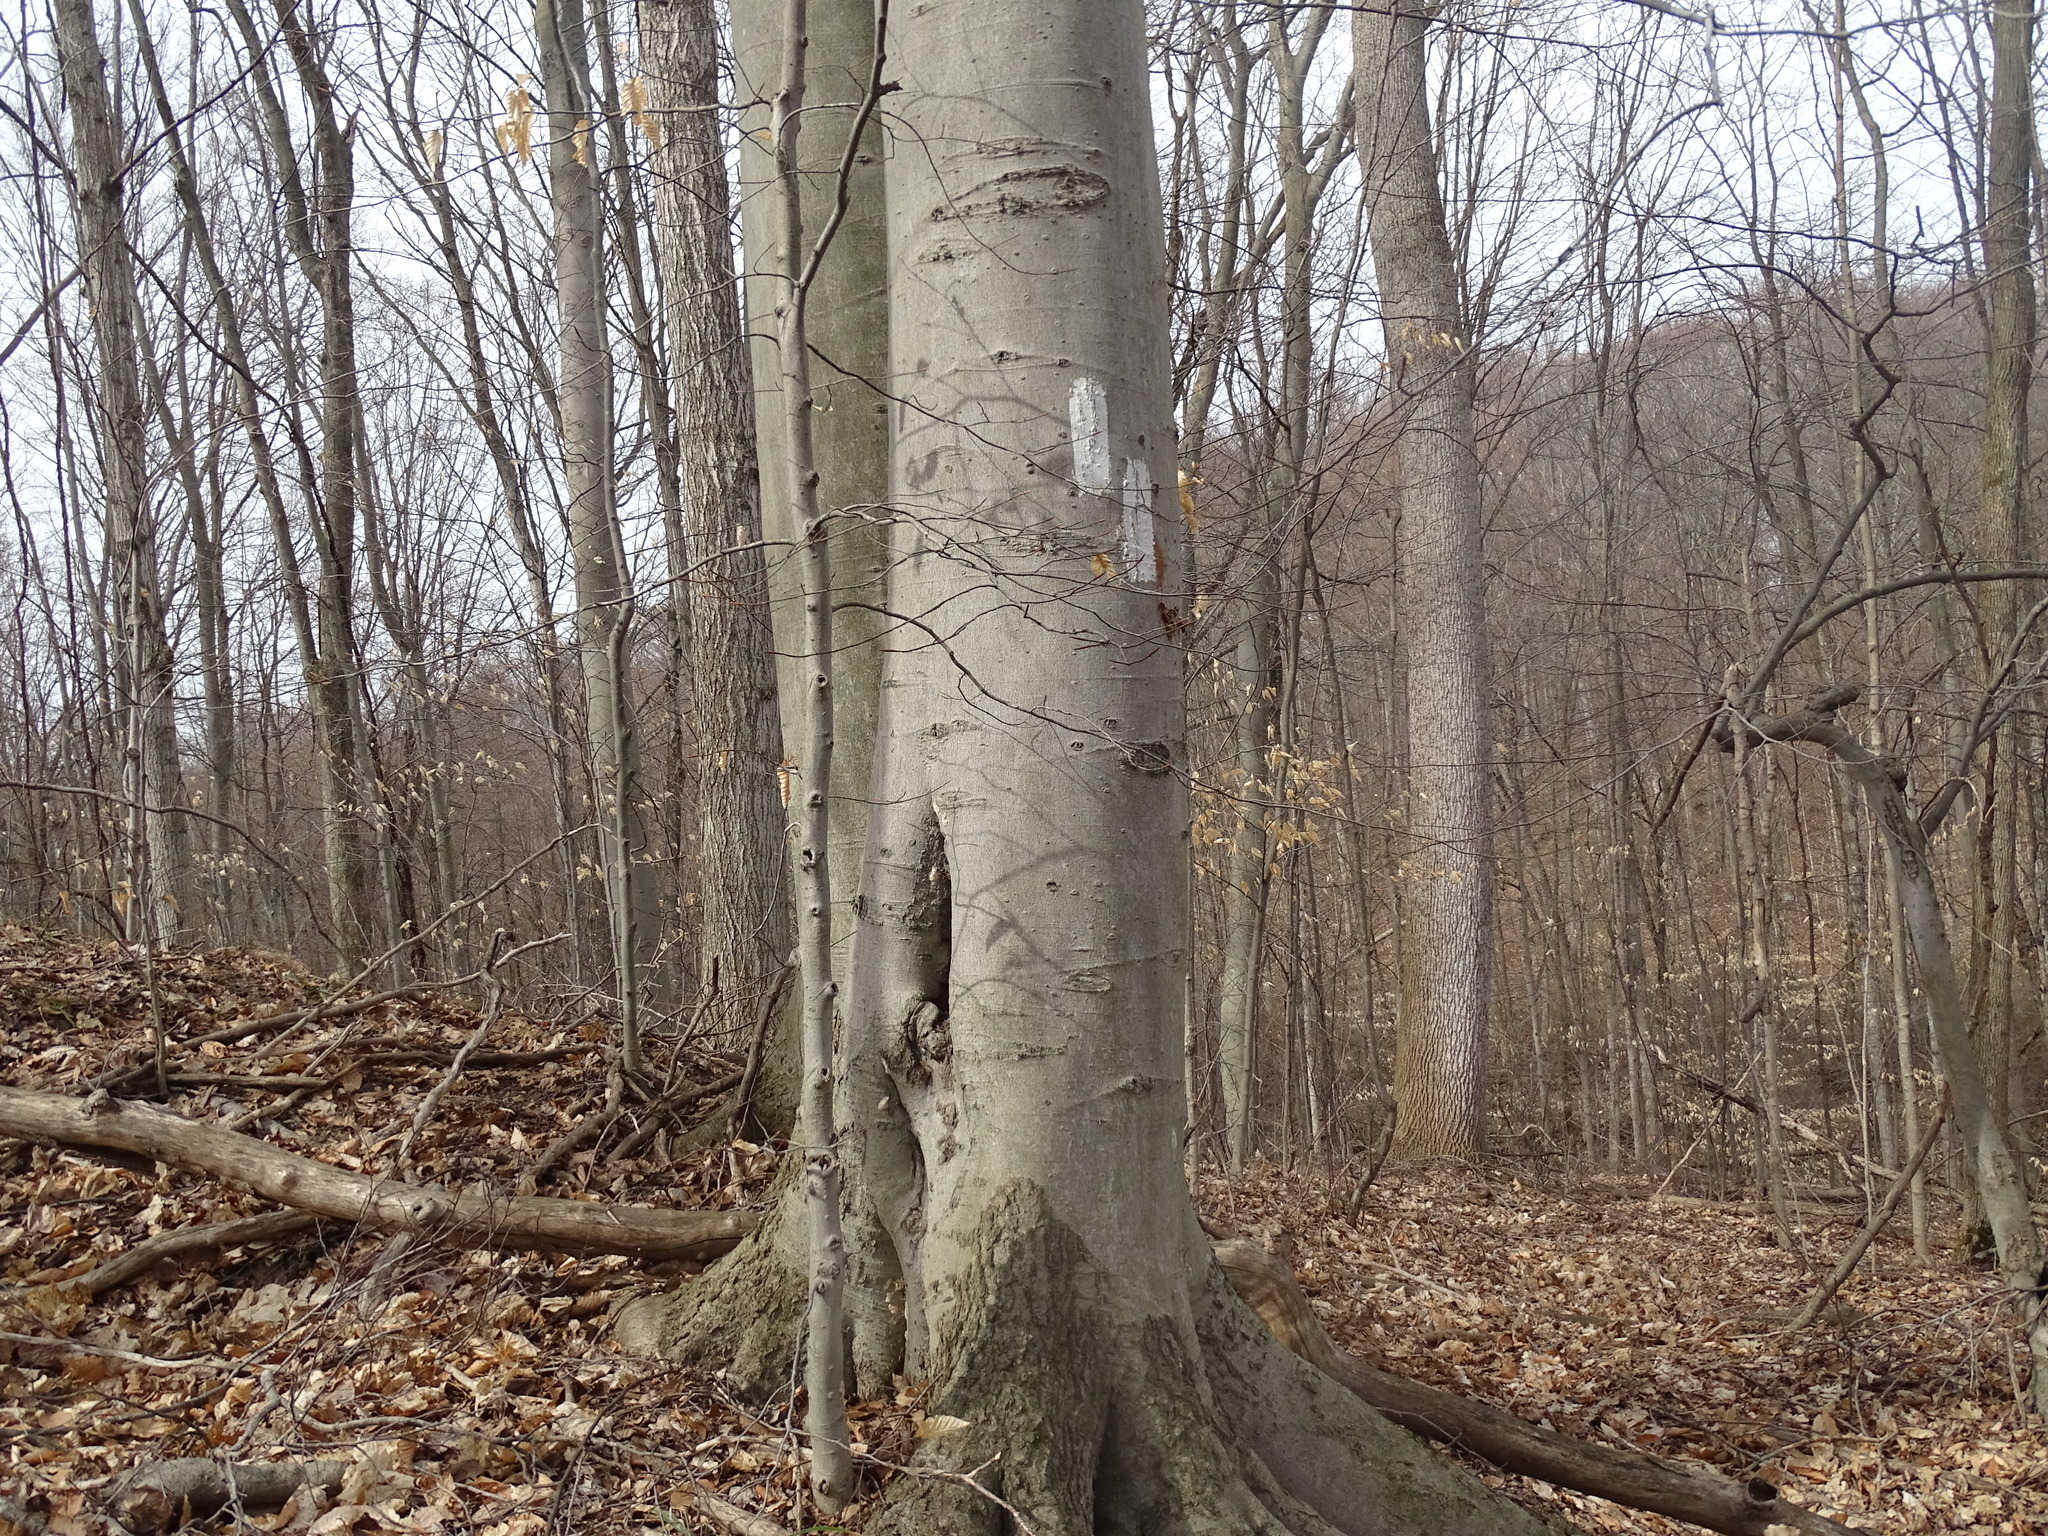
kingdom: Plantae
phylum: Tracheophyta
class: Magnoliopsida
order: Fagales
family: Fagaceae
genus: Fagus
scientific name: Fagus grandifolia
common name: American beech
